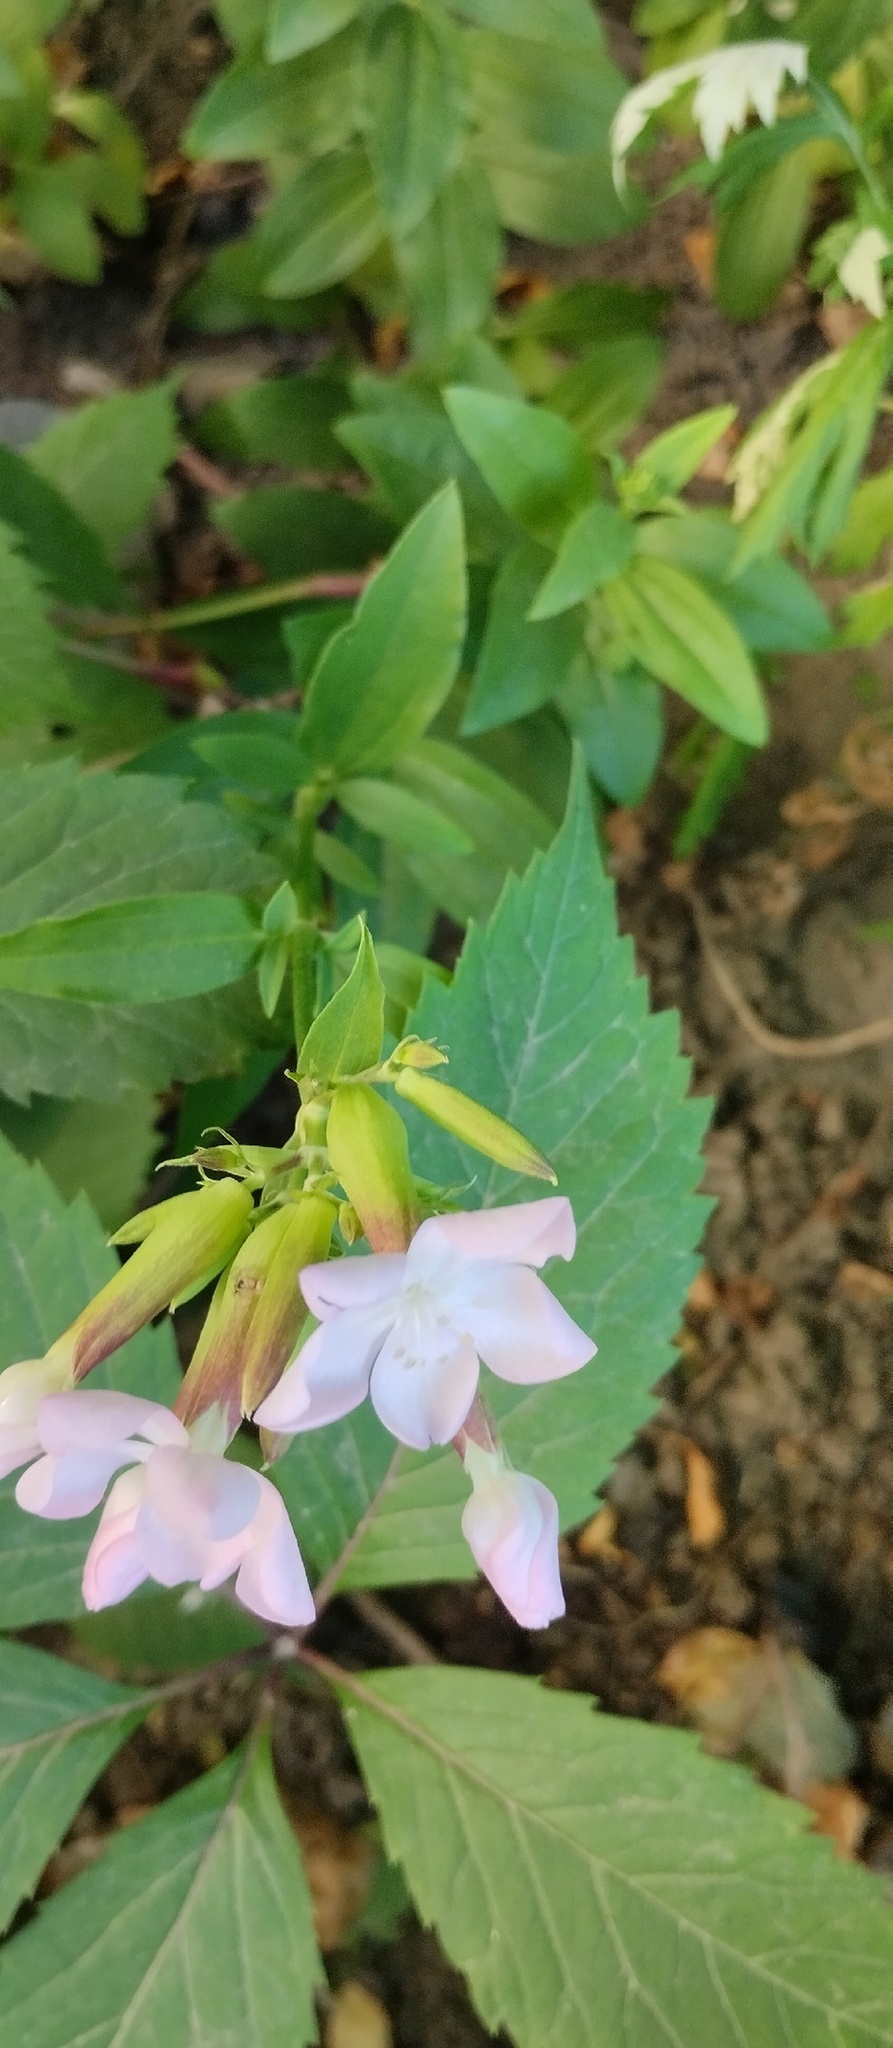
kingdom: Plantae
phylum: Tracheophyta
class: Magnoliopsida
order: Caryophyllales
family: Caryophyllaceae
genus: Saponaria
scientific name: Saponaria officinalis
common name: Soapwort
